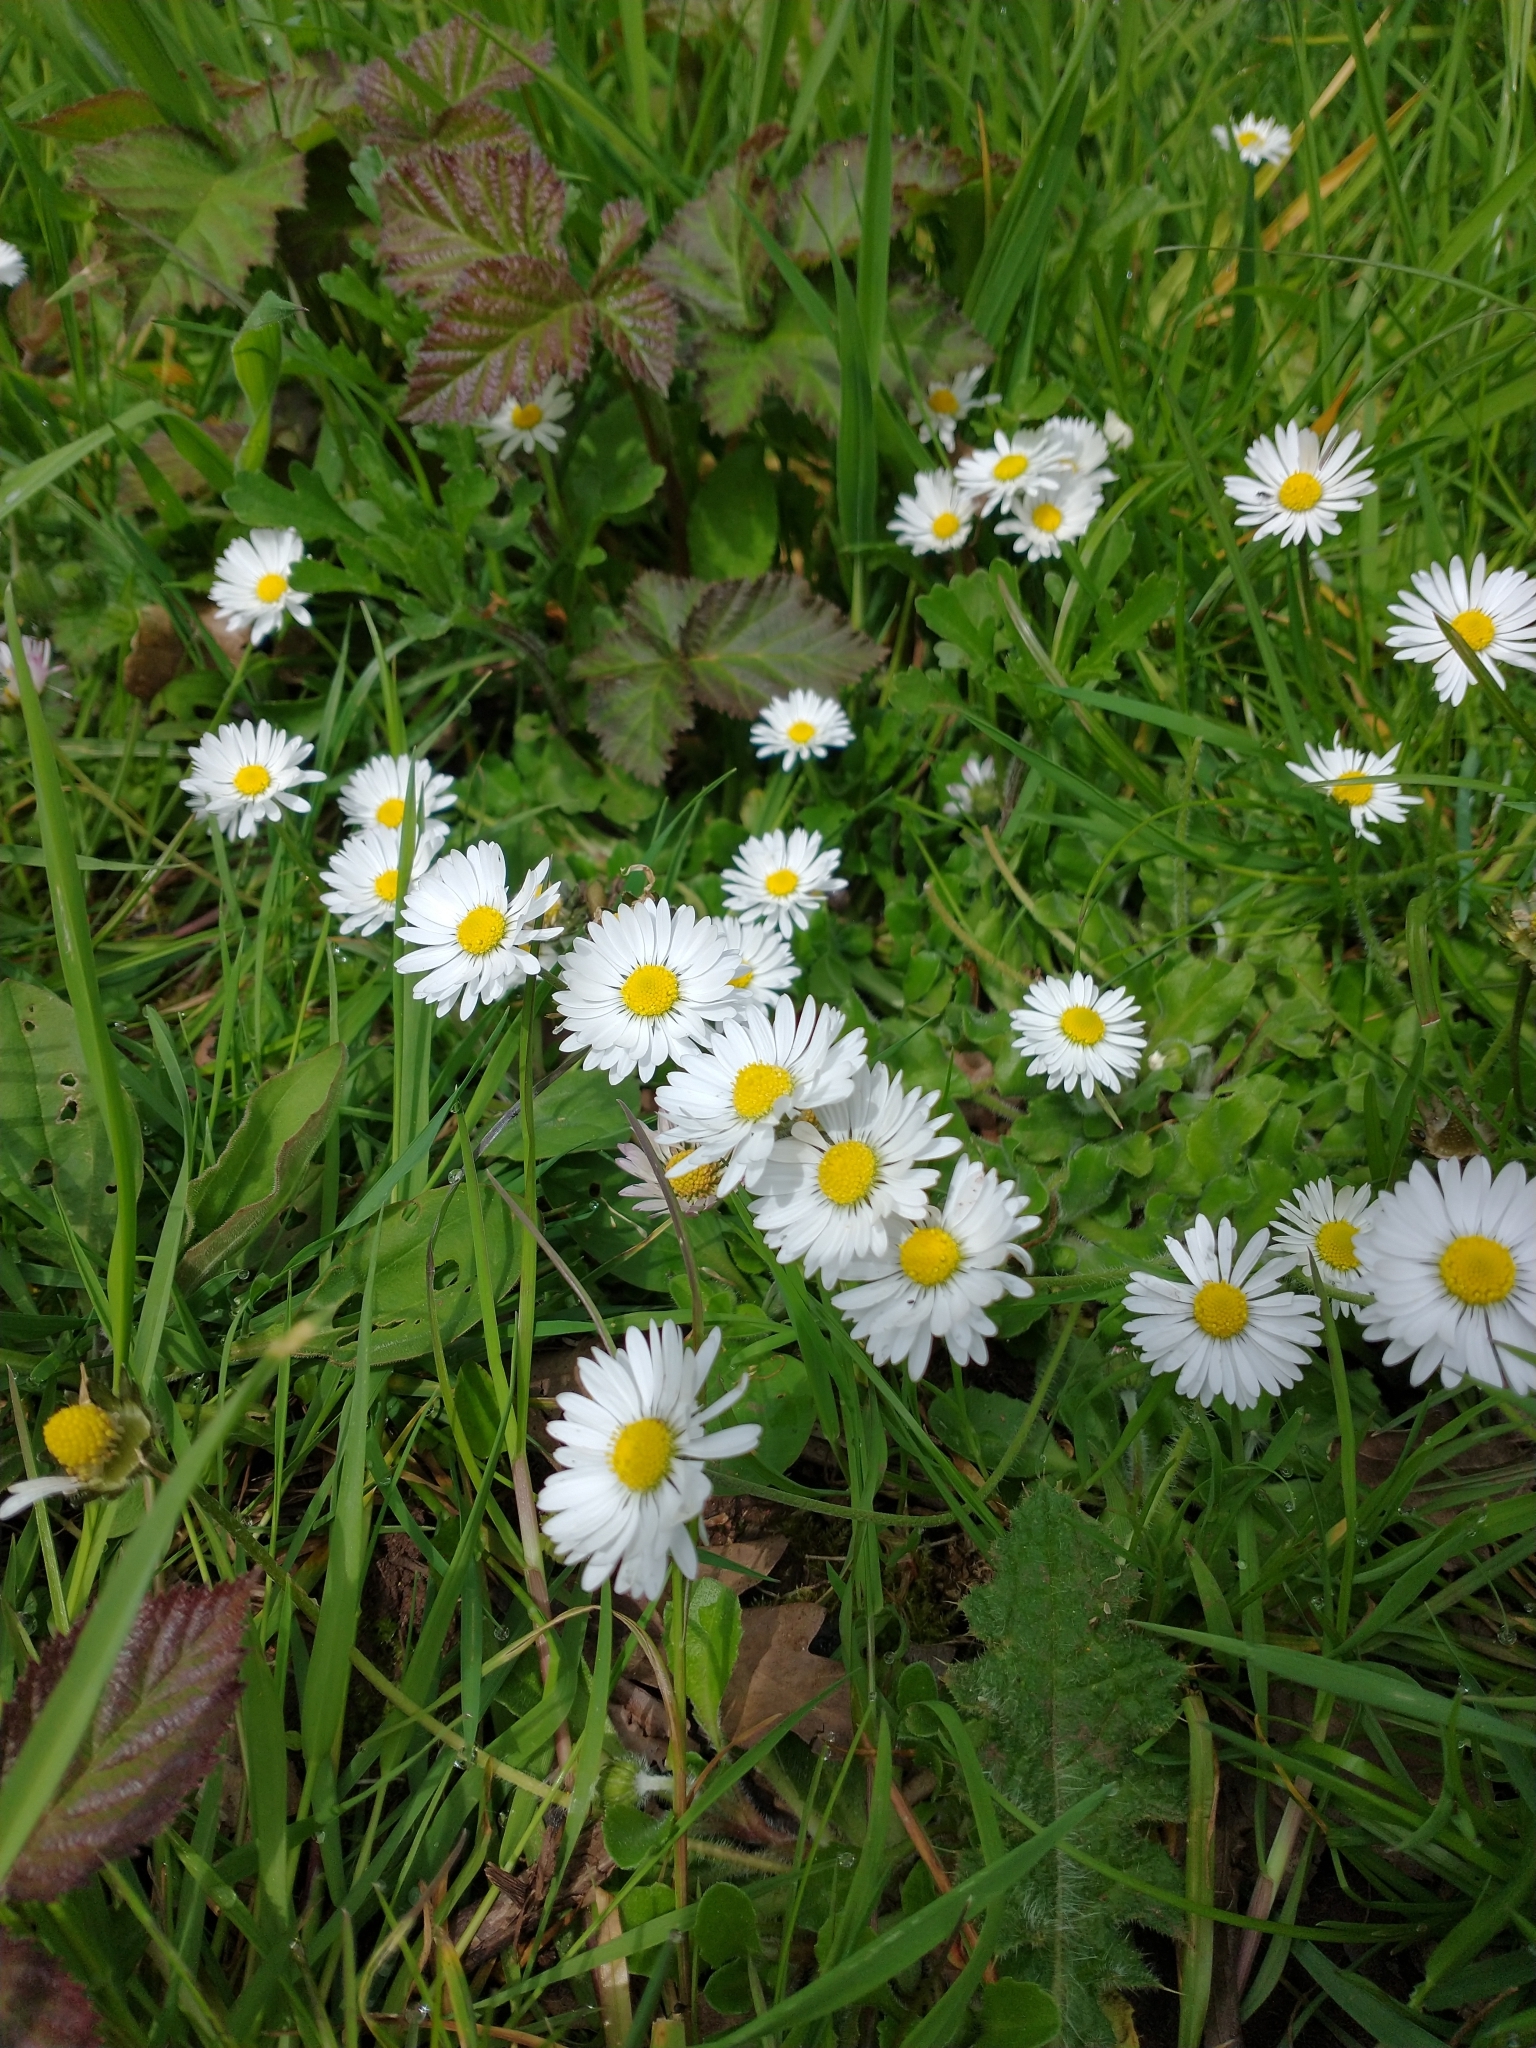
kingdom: Plantae
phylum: Tracheophyta
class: Magnoliopsida
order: Asterales
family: Asteraceae
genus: Bellis
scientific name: Bellis perennis
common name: Lawndaisy
